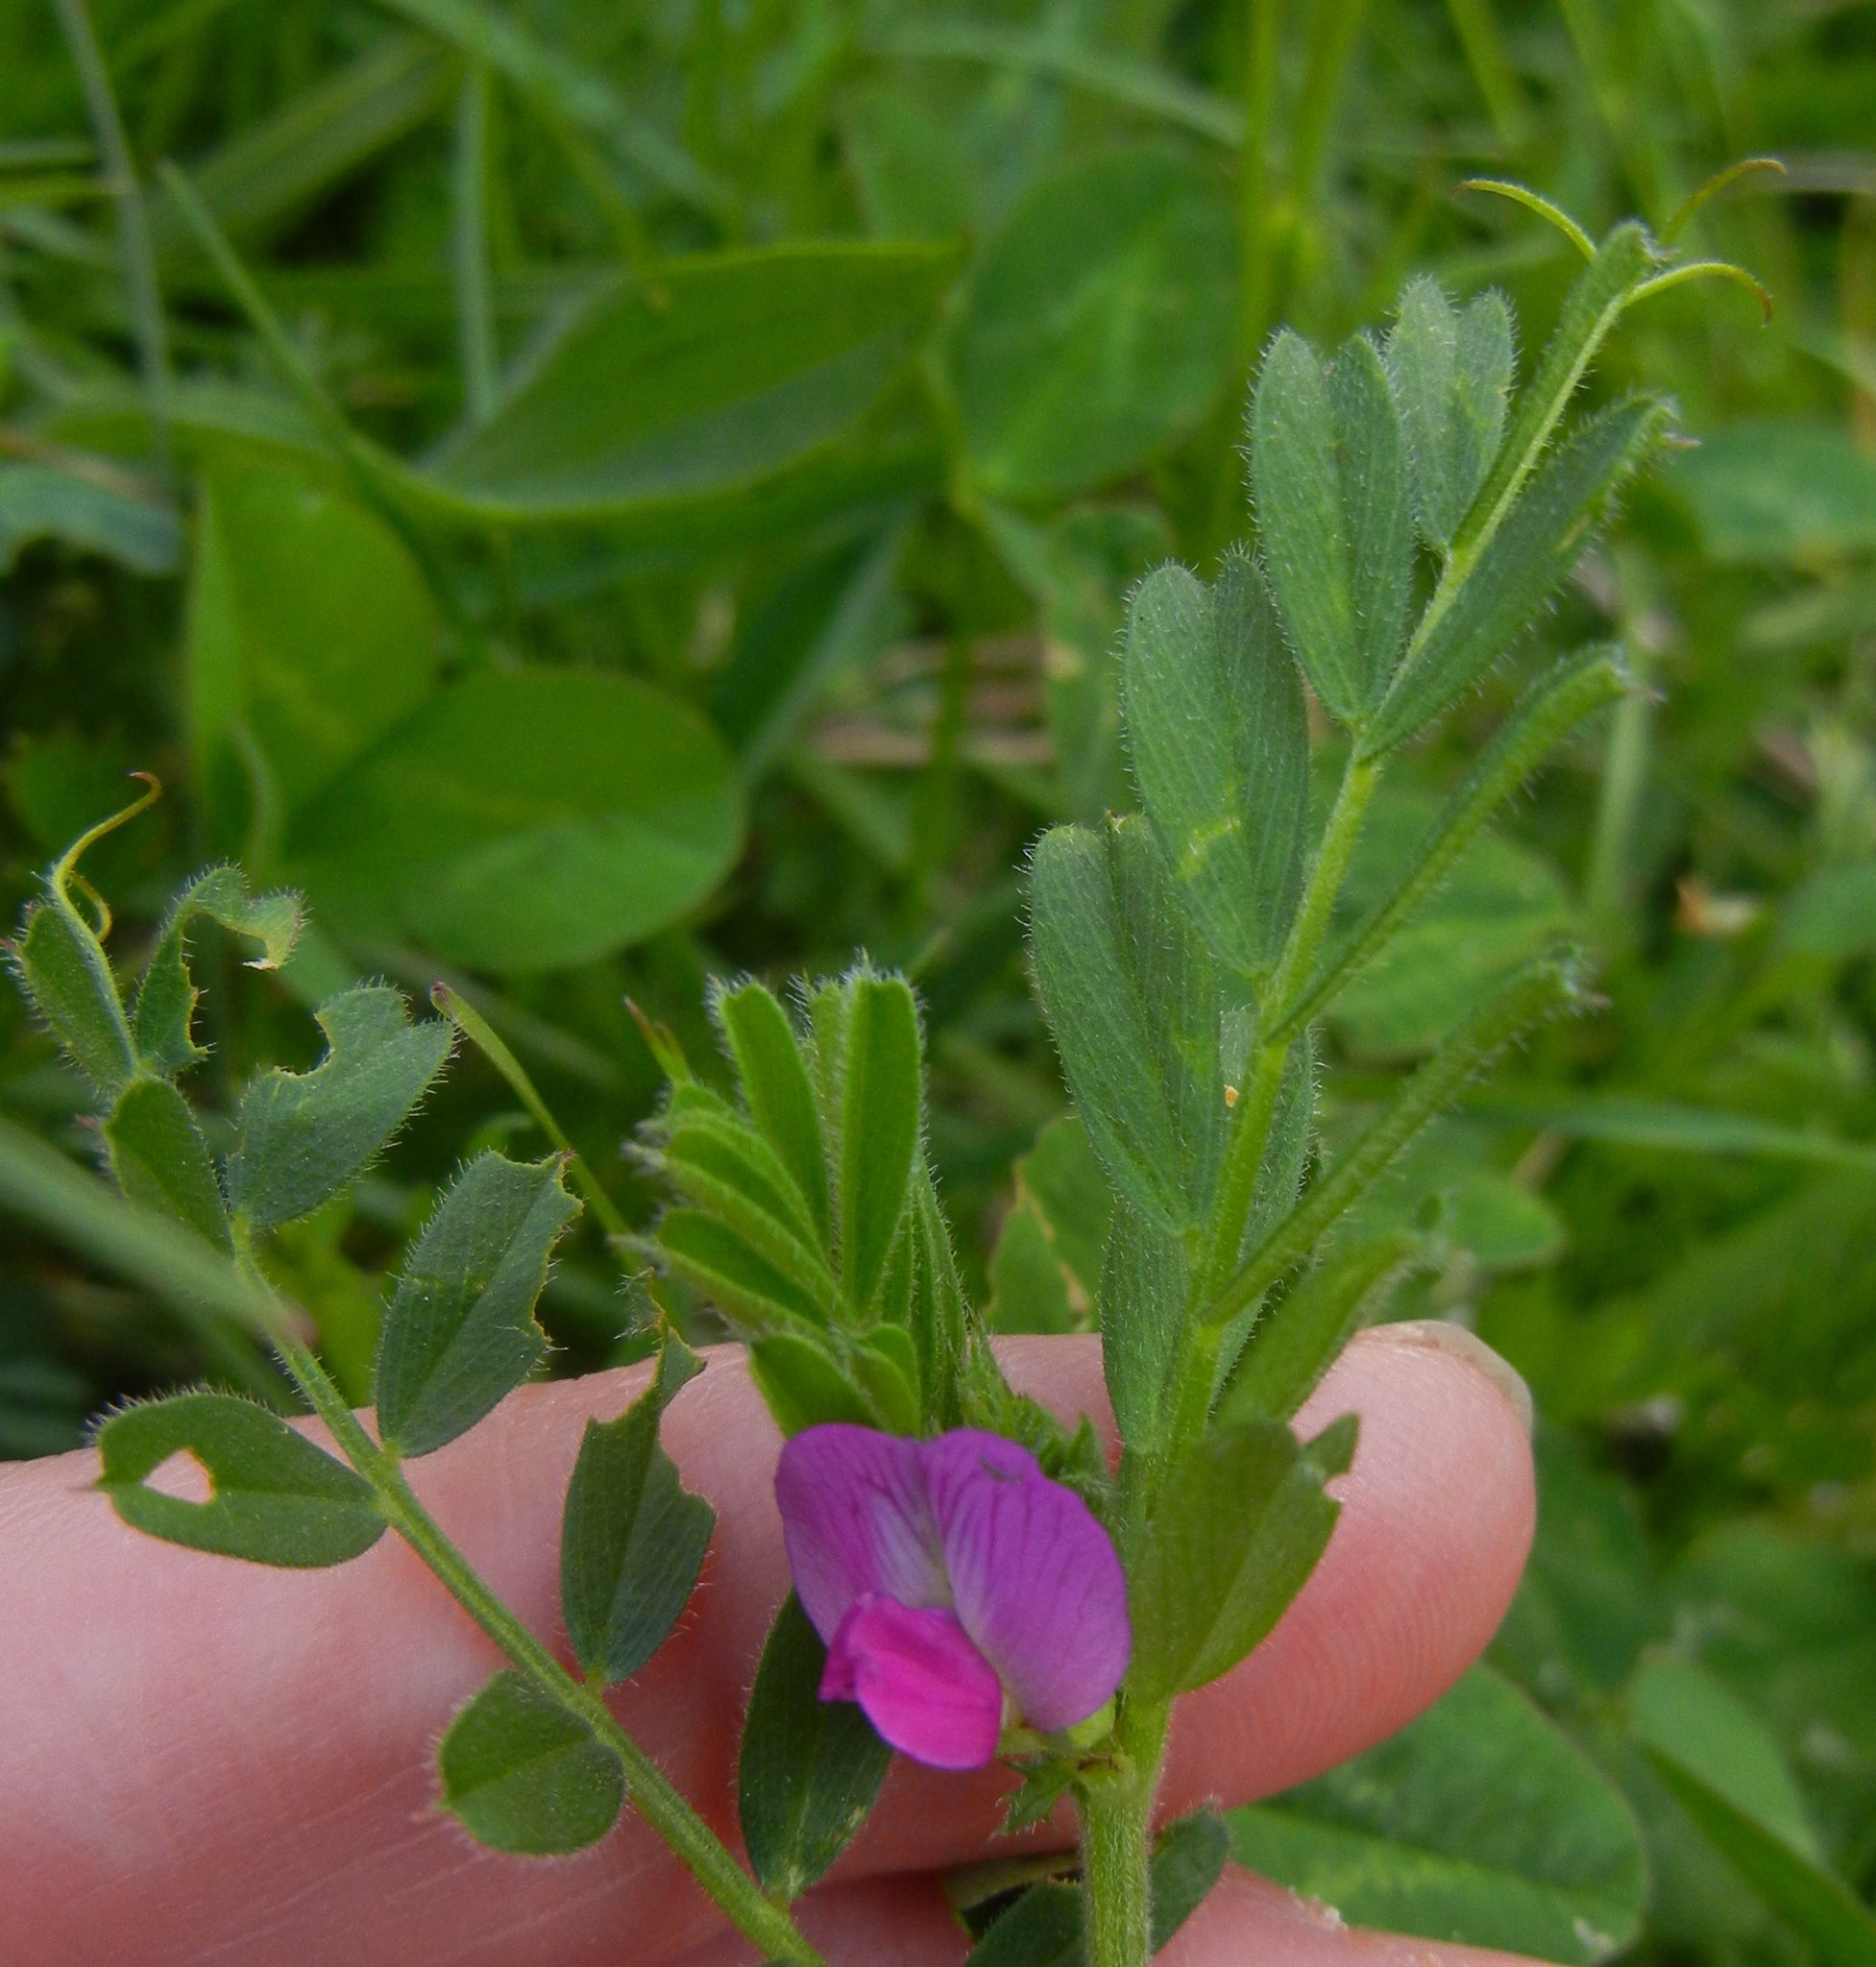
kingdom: Plantae
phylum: Tracheophyta
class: Magnoliopsida
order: Fabales
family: Fabaceae
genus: Vicia
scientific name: Vicia sativa
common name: Garden vetch
